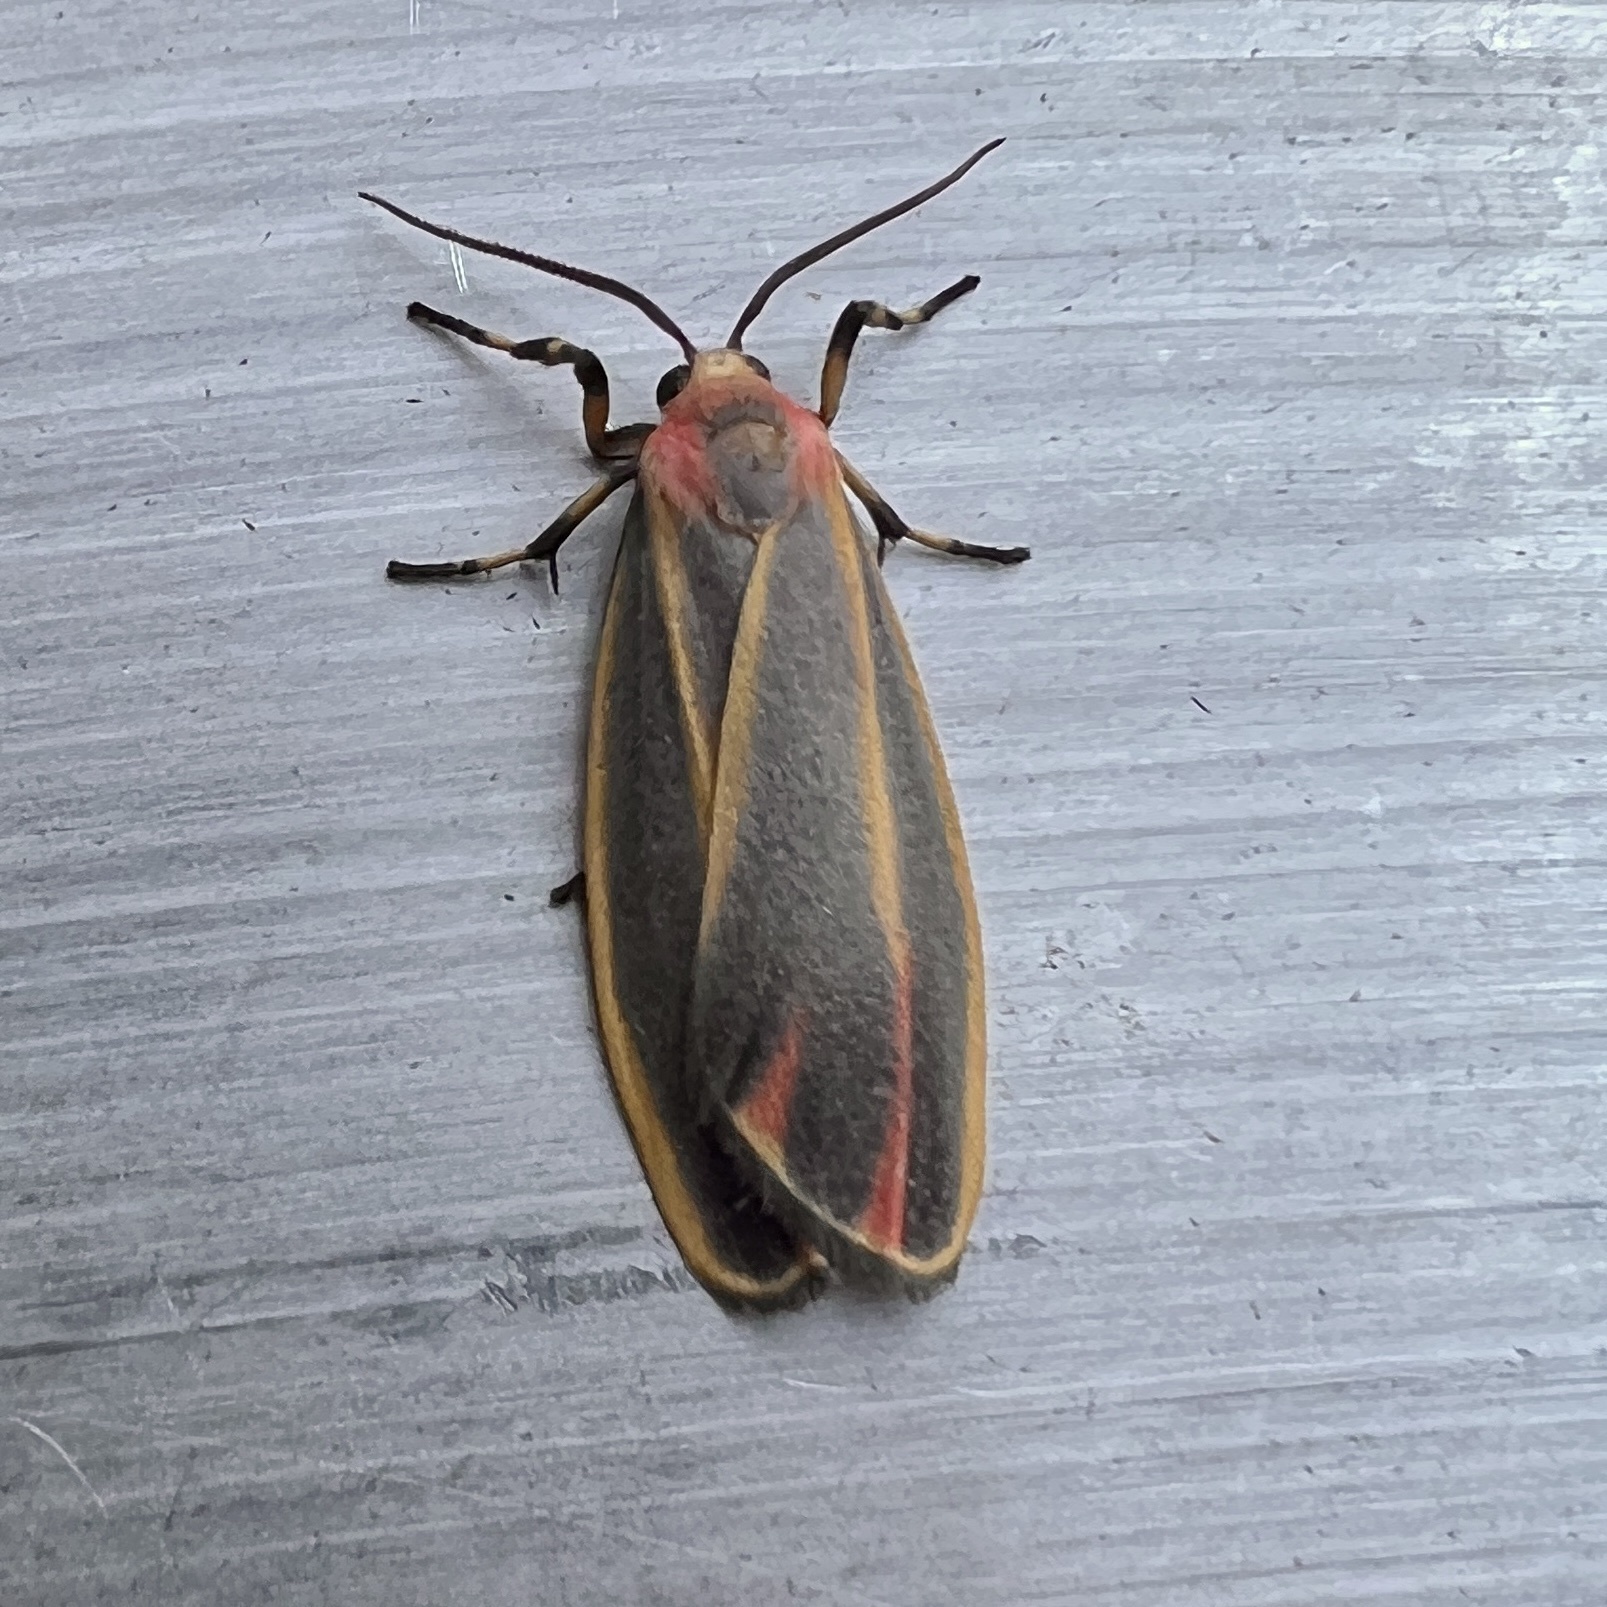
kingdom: Animalia
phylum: Arthropoda
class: Insecta
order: Lepidoptera
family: Erebidae
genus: Hypoprepia
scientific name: Hypoprepia fucosa
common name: Painted lichen moth
